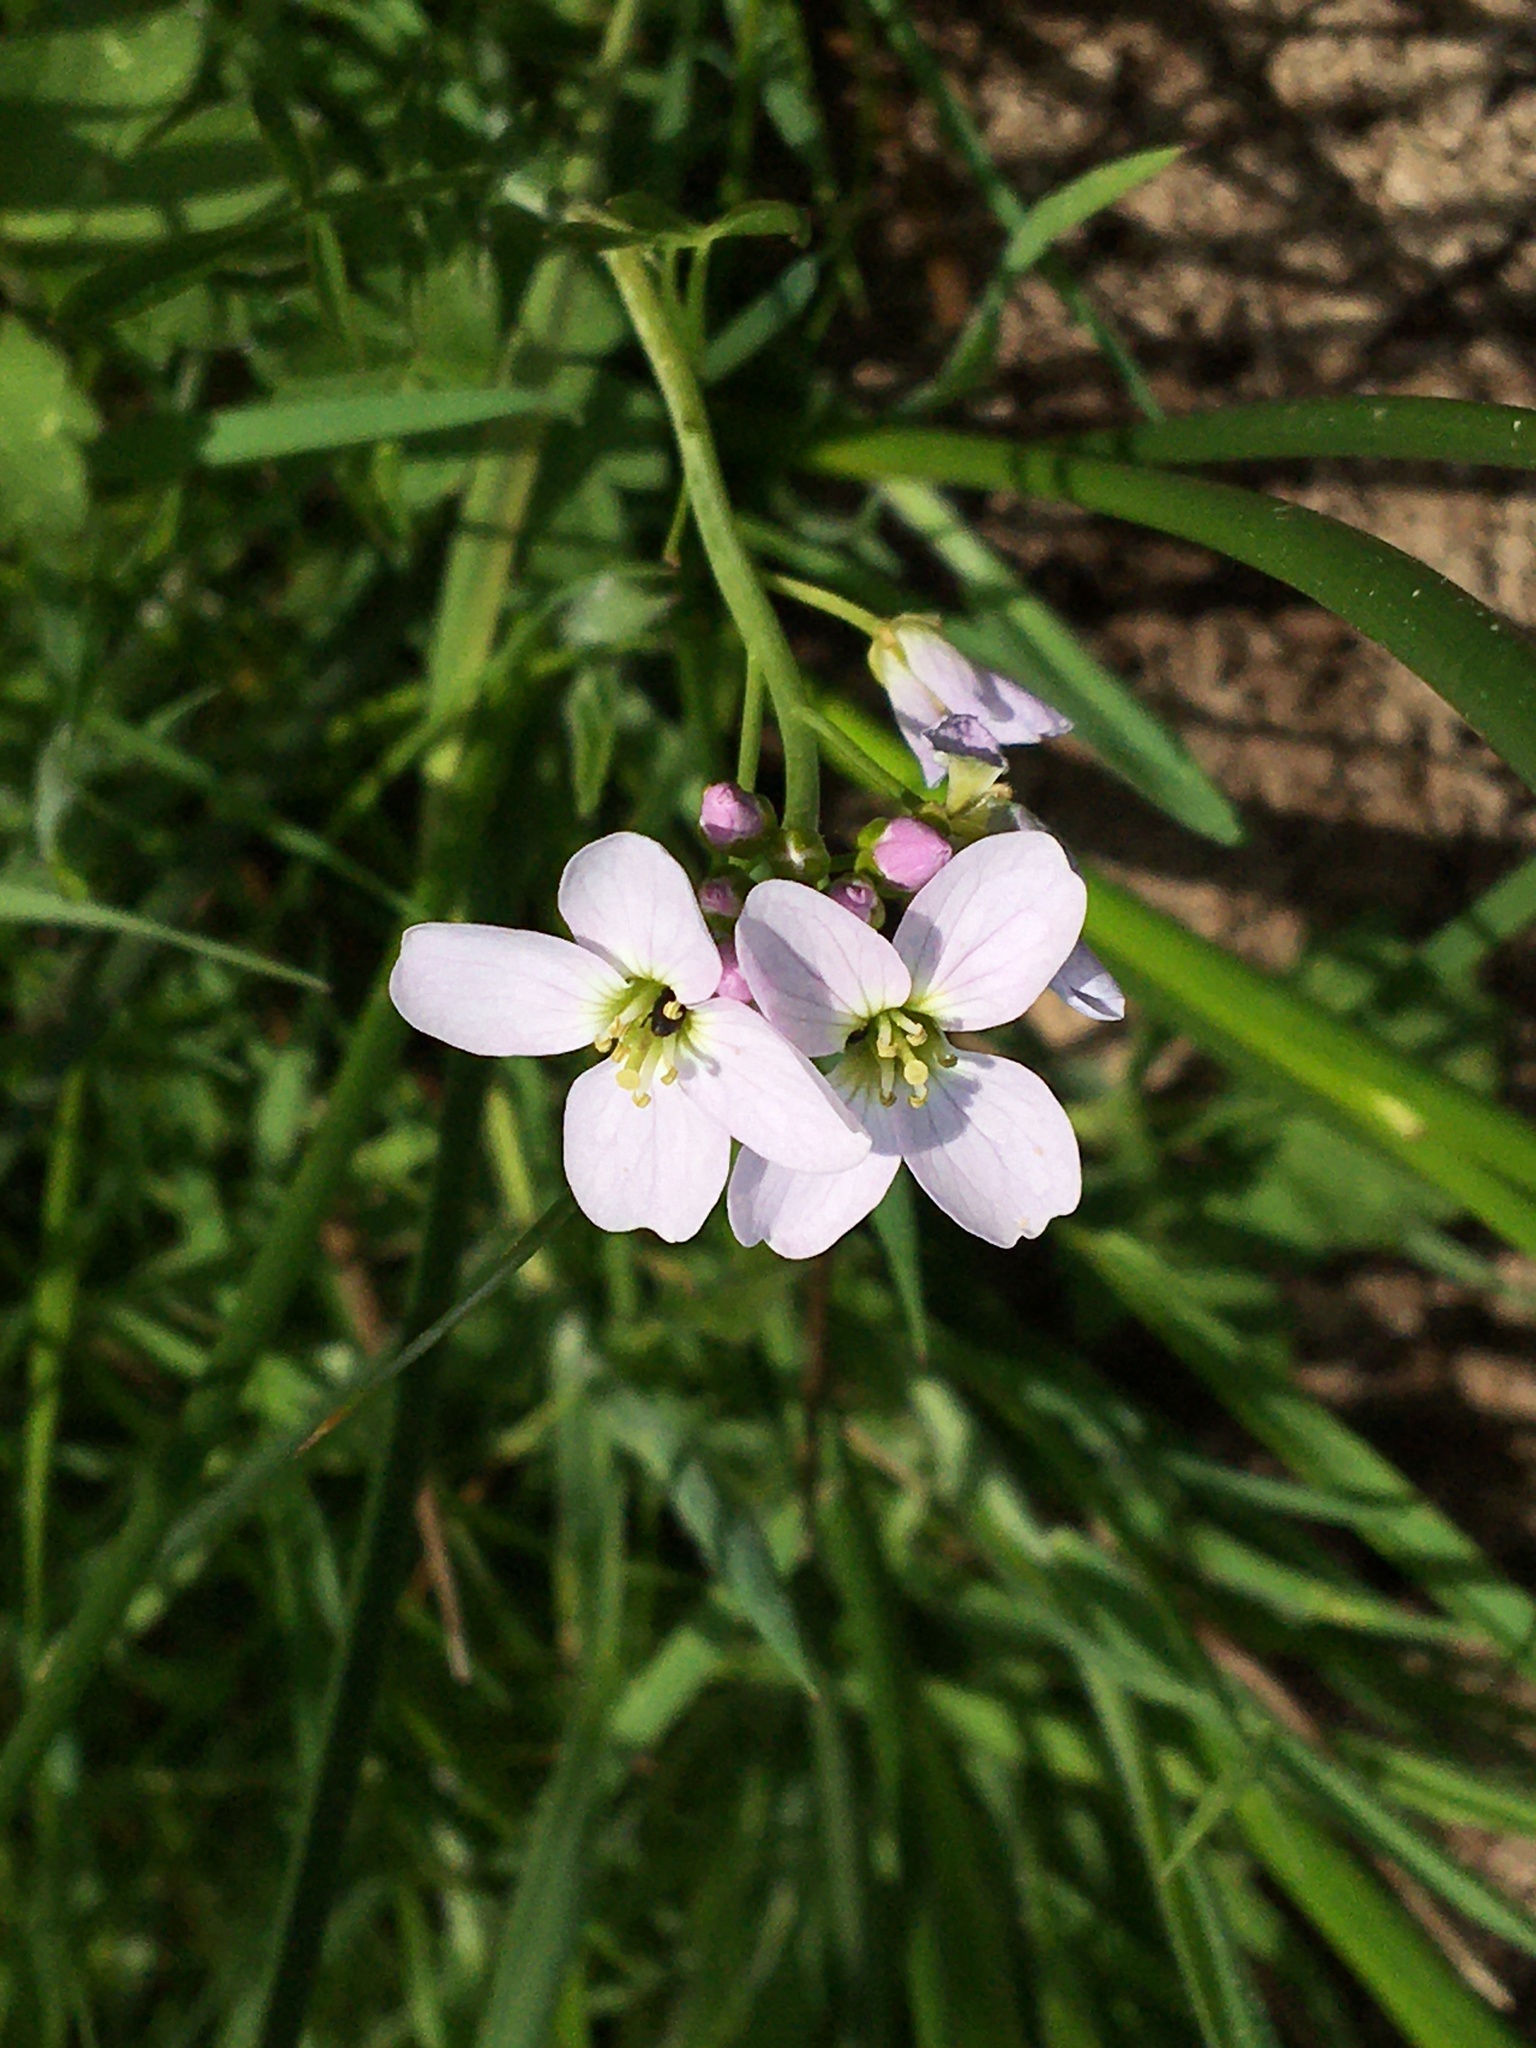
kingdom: Plantae
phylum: Tracheophyta
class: Magnoliopsida
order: Brassicales
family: Brassicaceae
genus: Cardamine
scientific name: Cardamine pratensis
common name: Cuckoo flower
